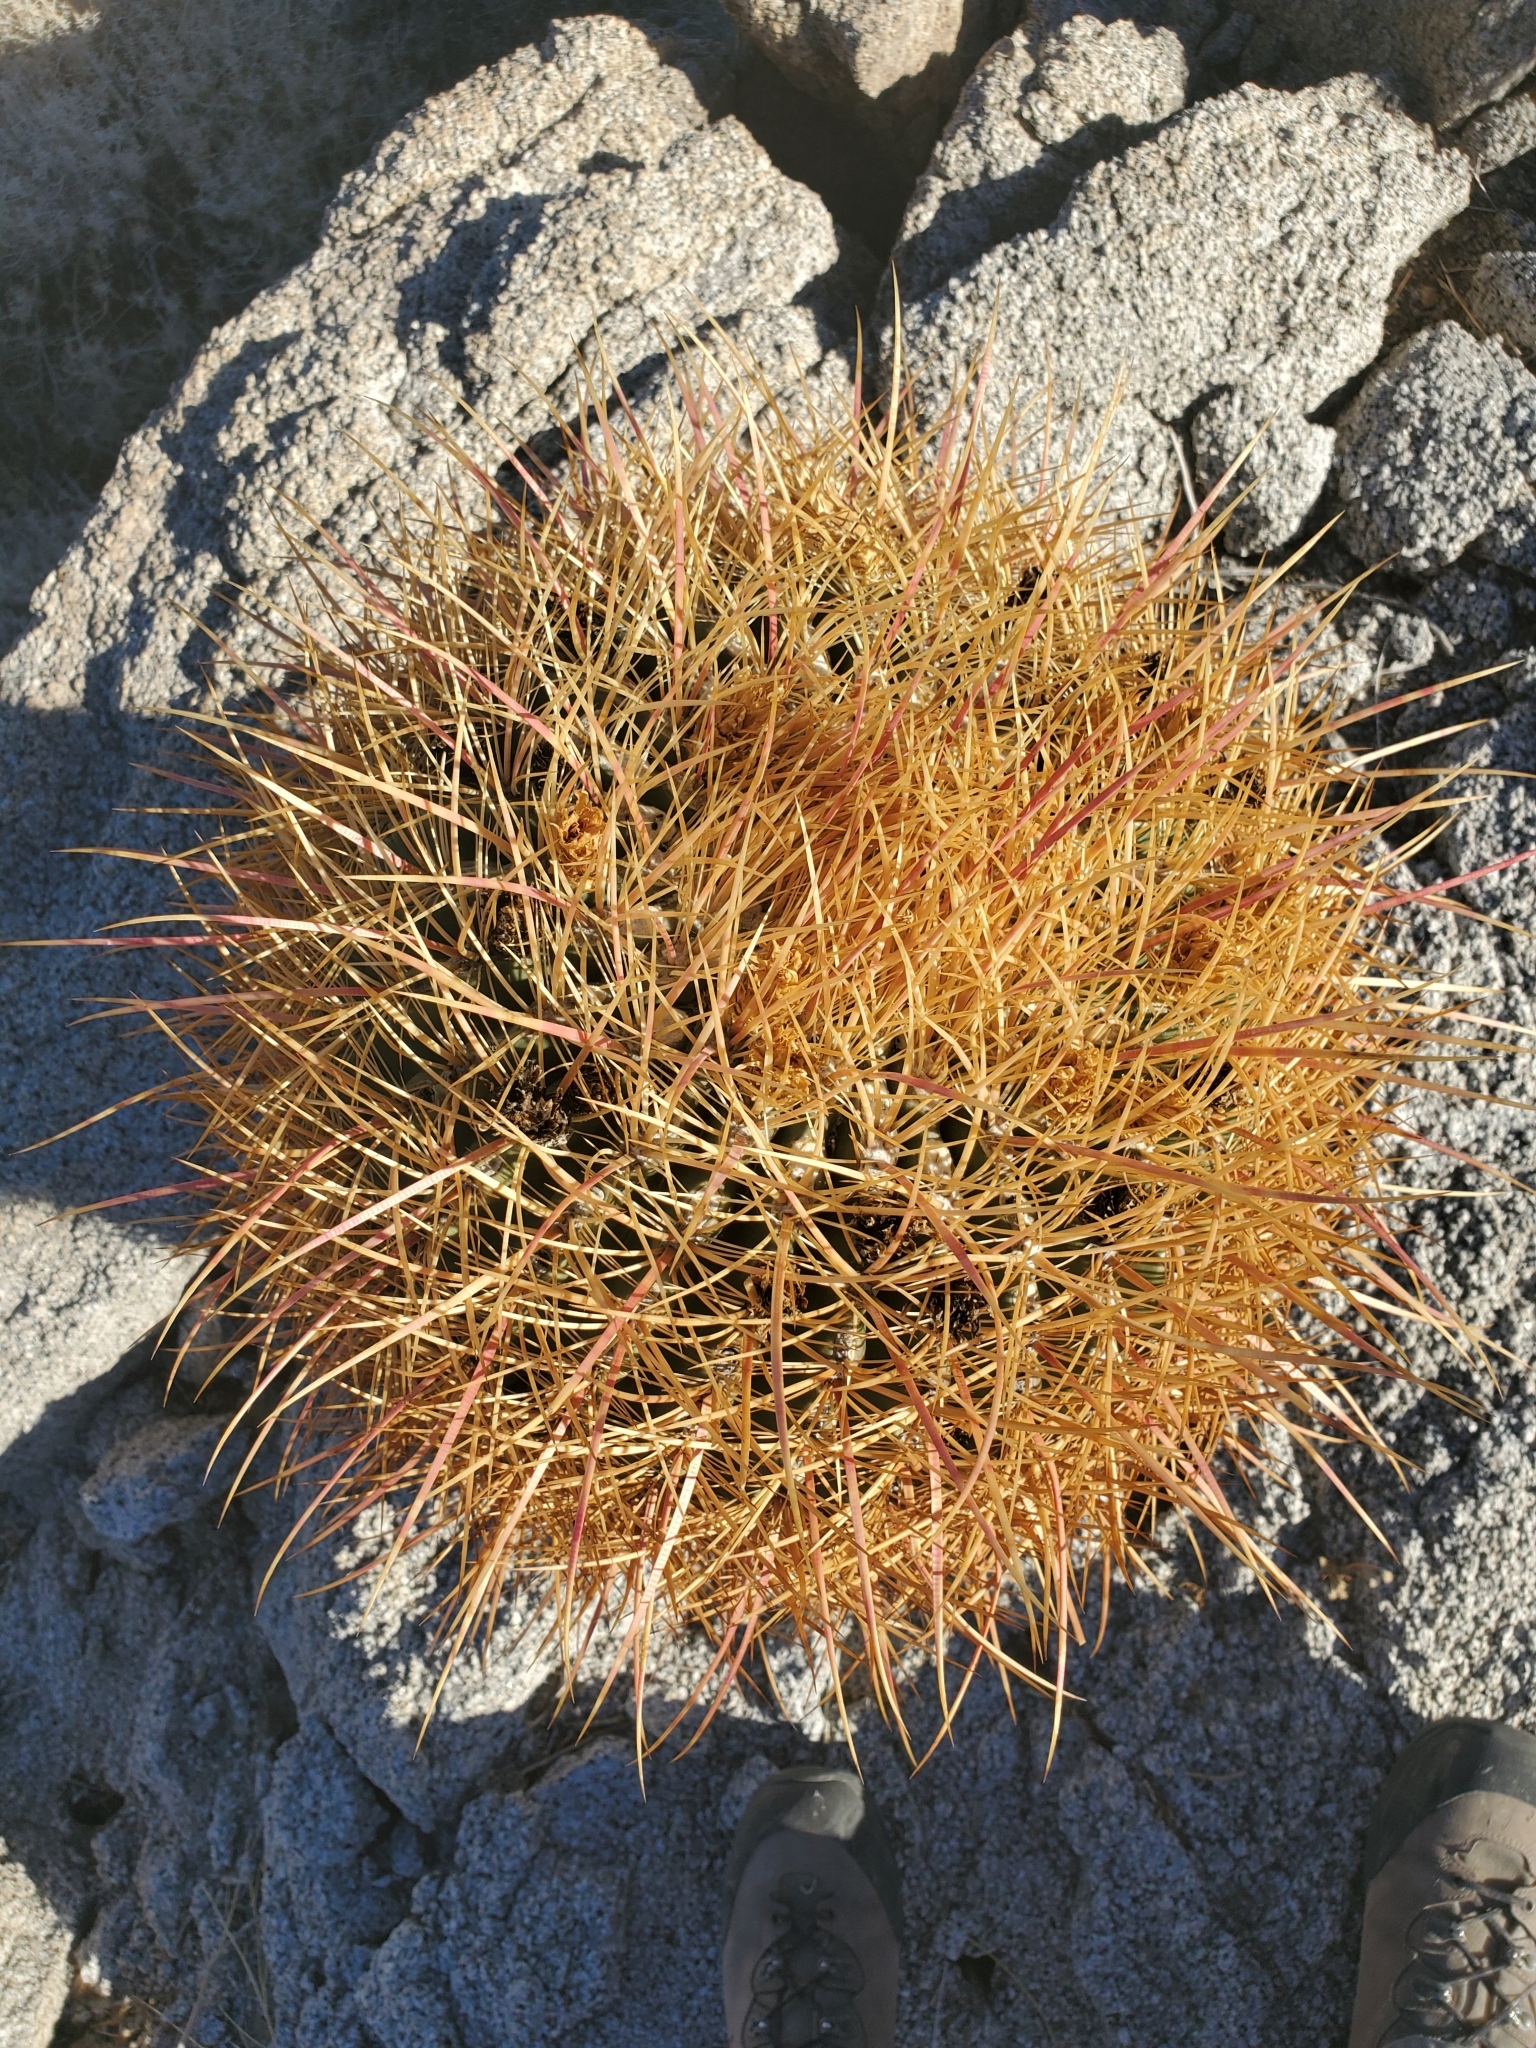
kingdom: Plantae
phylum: Tracheophyta
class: Magnoliopsida
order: Caryophyllales
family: Cactaceae
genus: Ferocactus
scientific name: Ferocactus cylindraceus
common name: California barrel cactus
